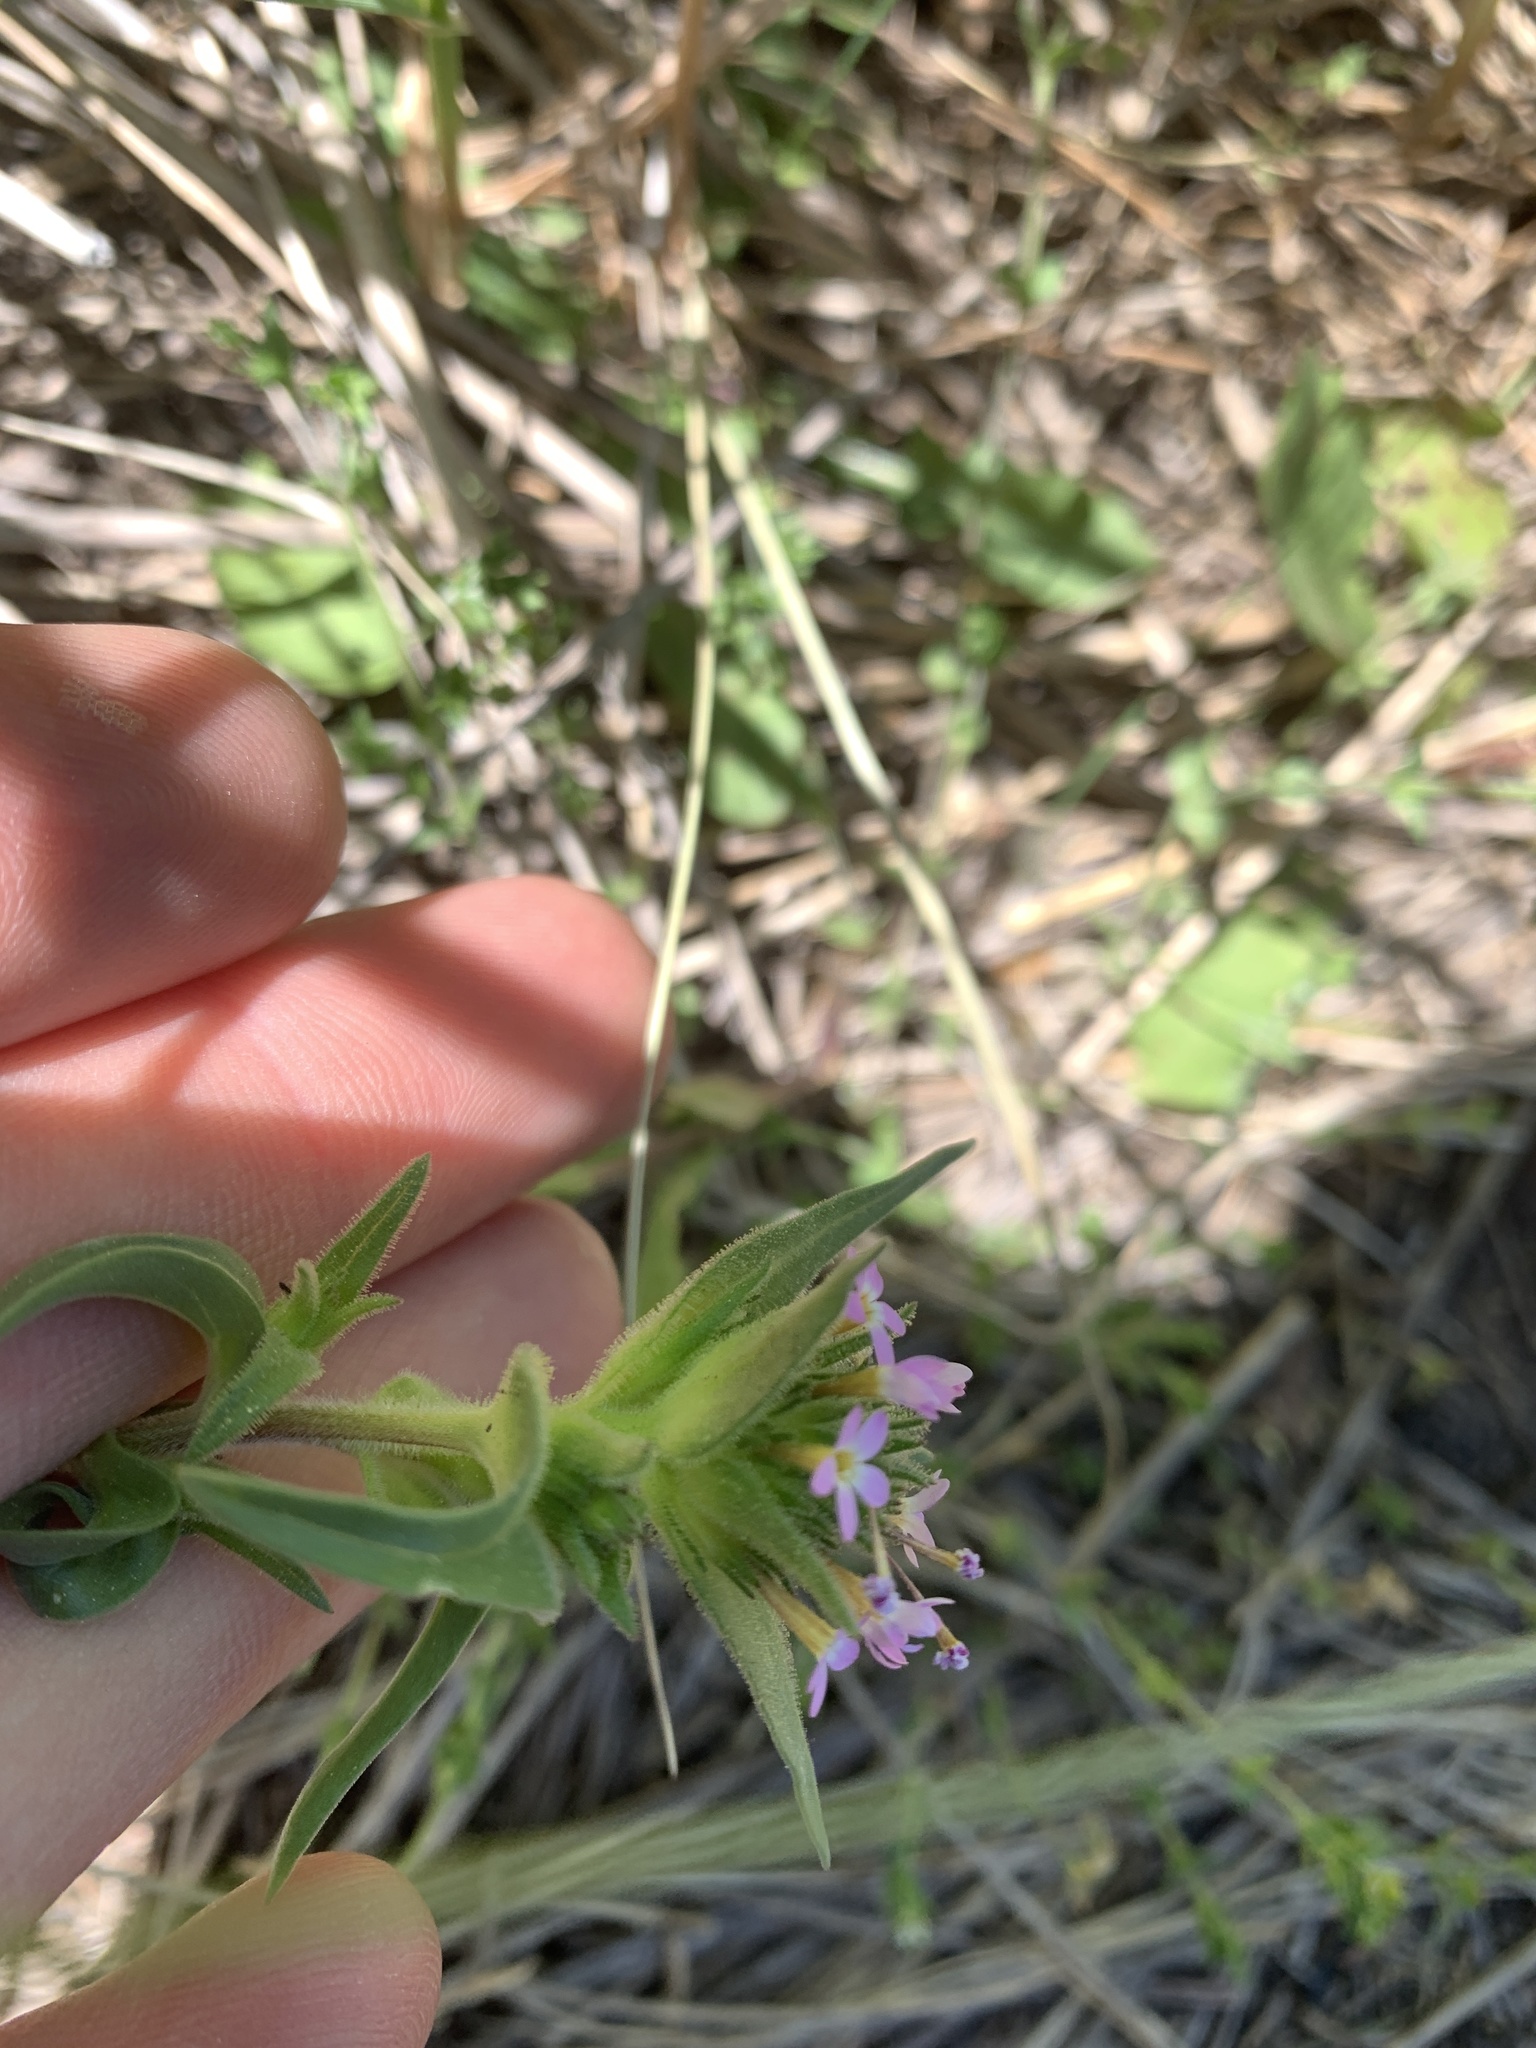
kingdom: Plantae
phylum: Tracheophyta
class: Magnoliopsida
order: Ericales
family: Polemoniaceae
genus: Collomia
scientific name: Collomia linearis
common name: Tiny trumpet
